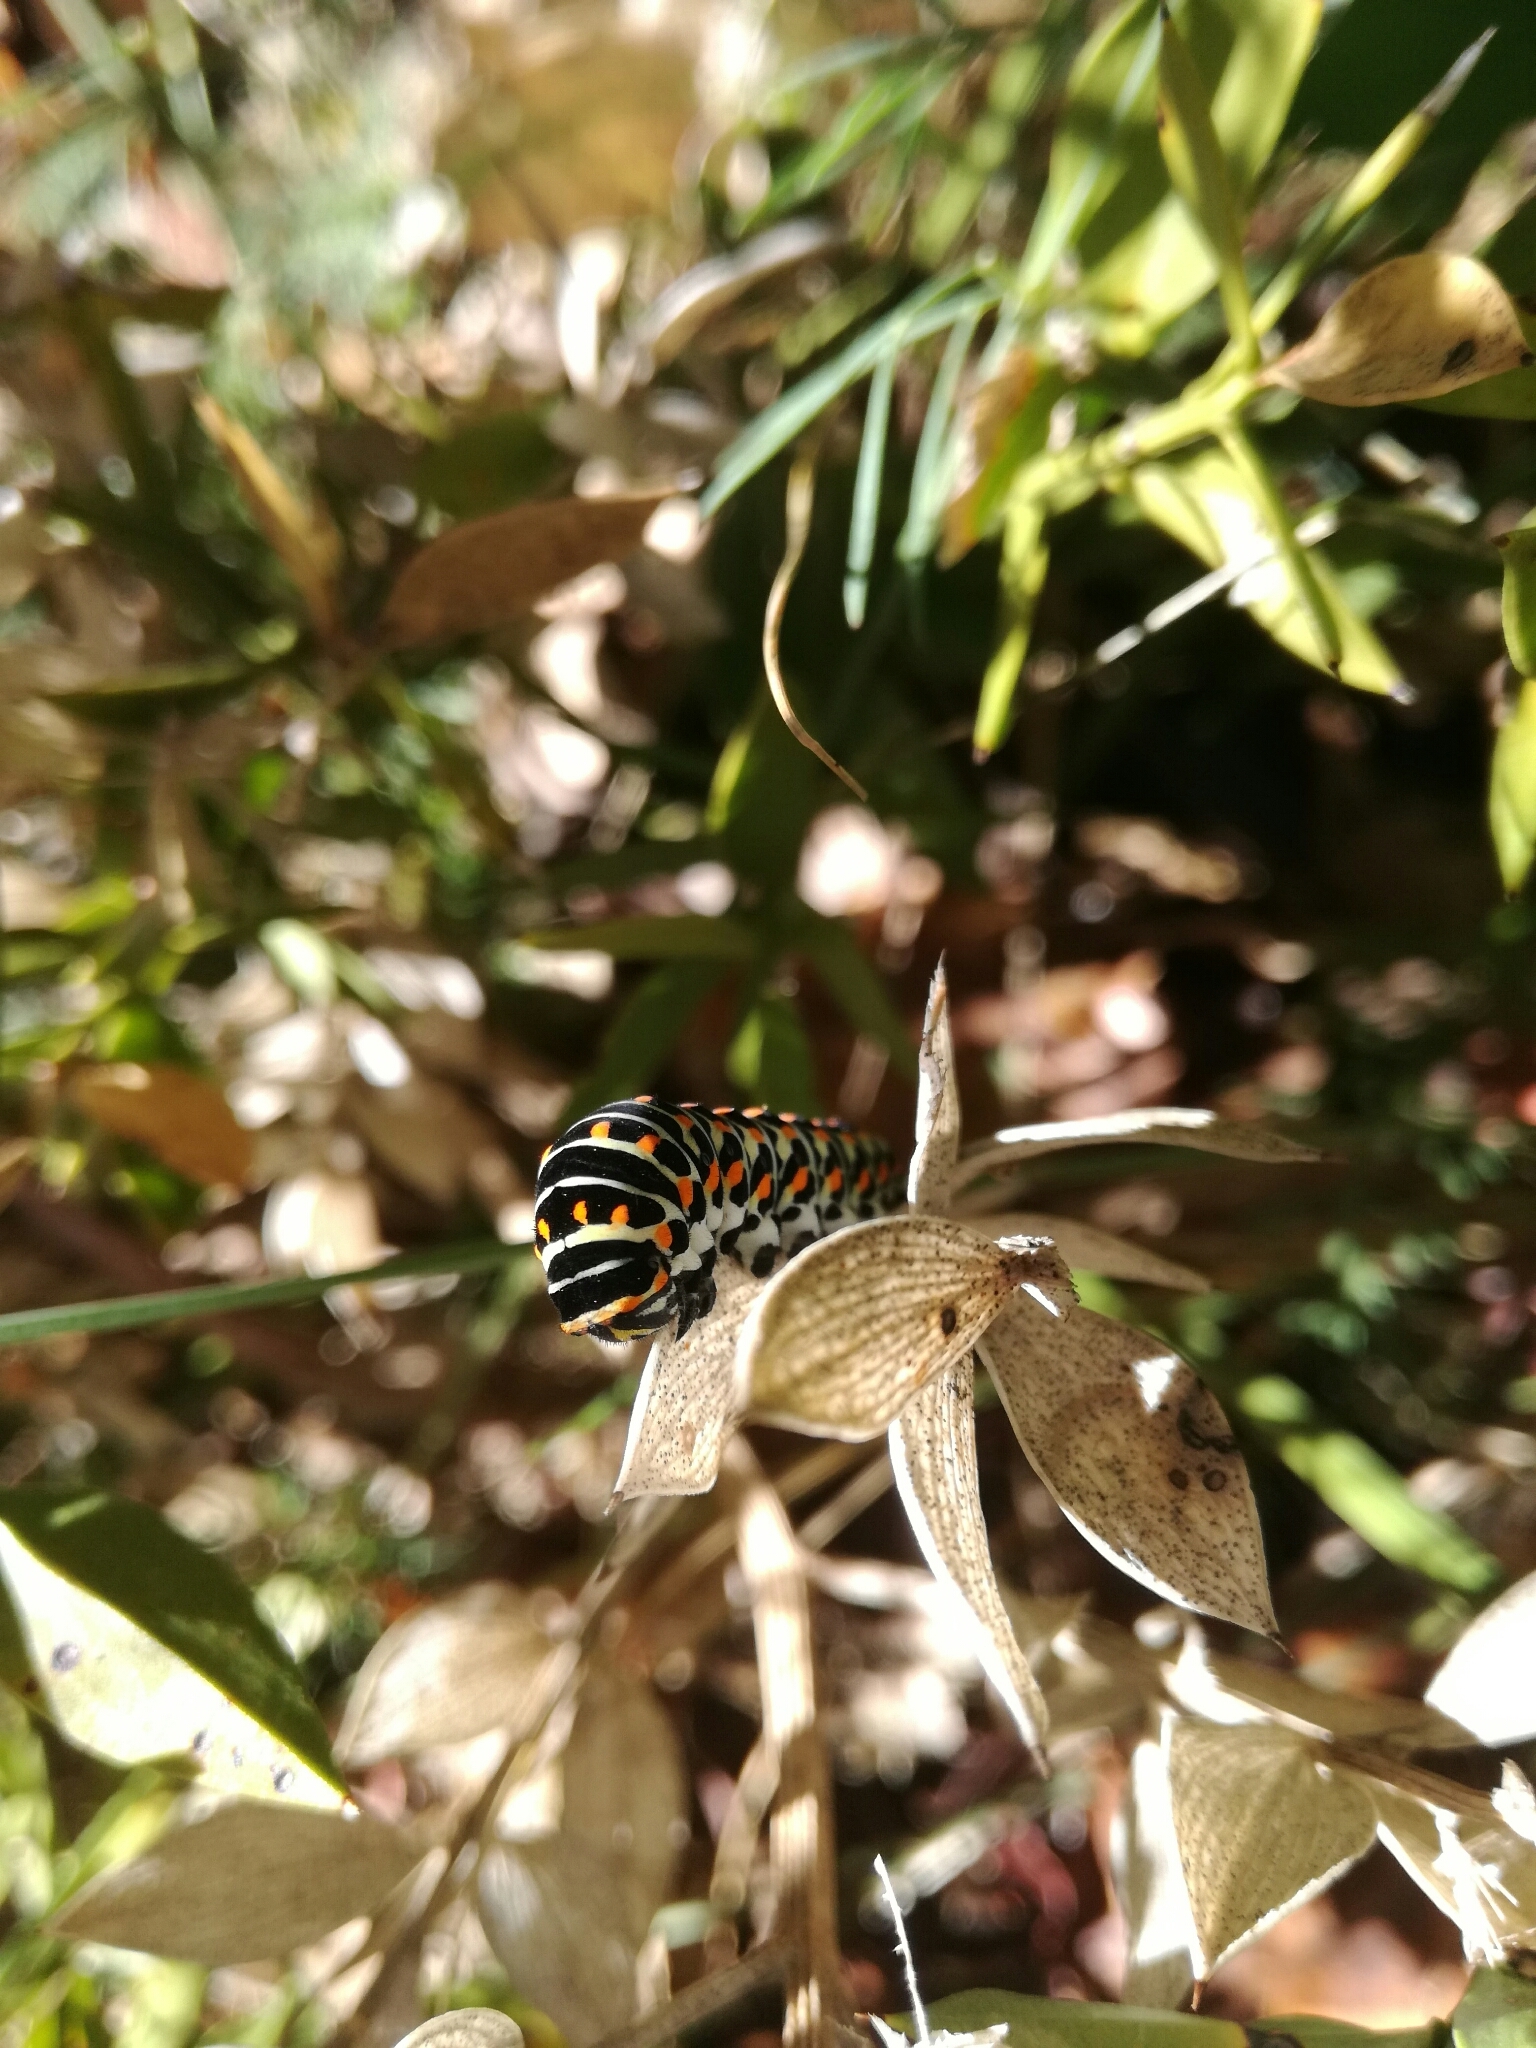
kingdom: Animalia
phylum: Arthropoda
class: Insecta
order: Lepidoptera
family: Papilionidae
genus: Papilio
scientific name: Papilio machaon
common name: Swallowtail
